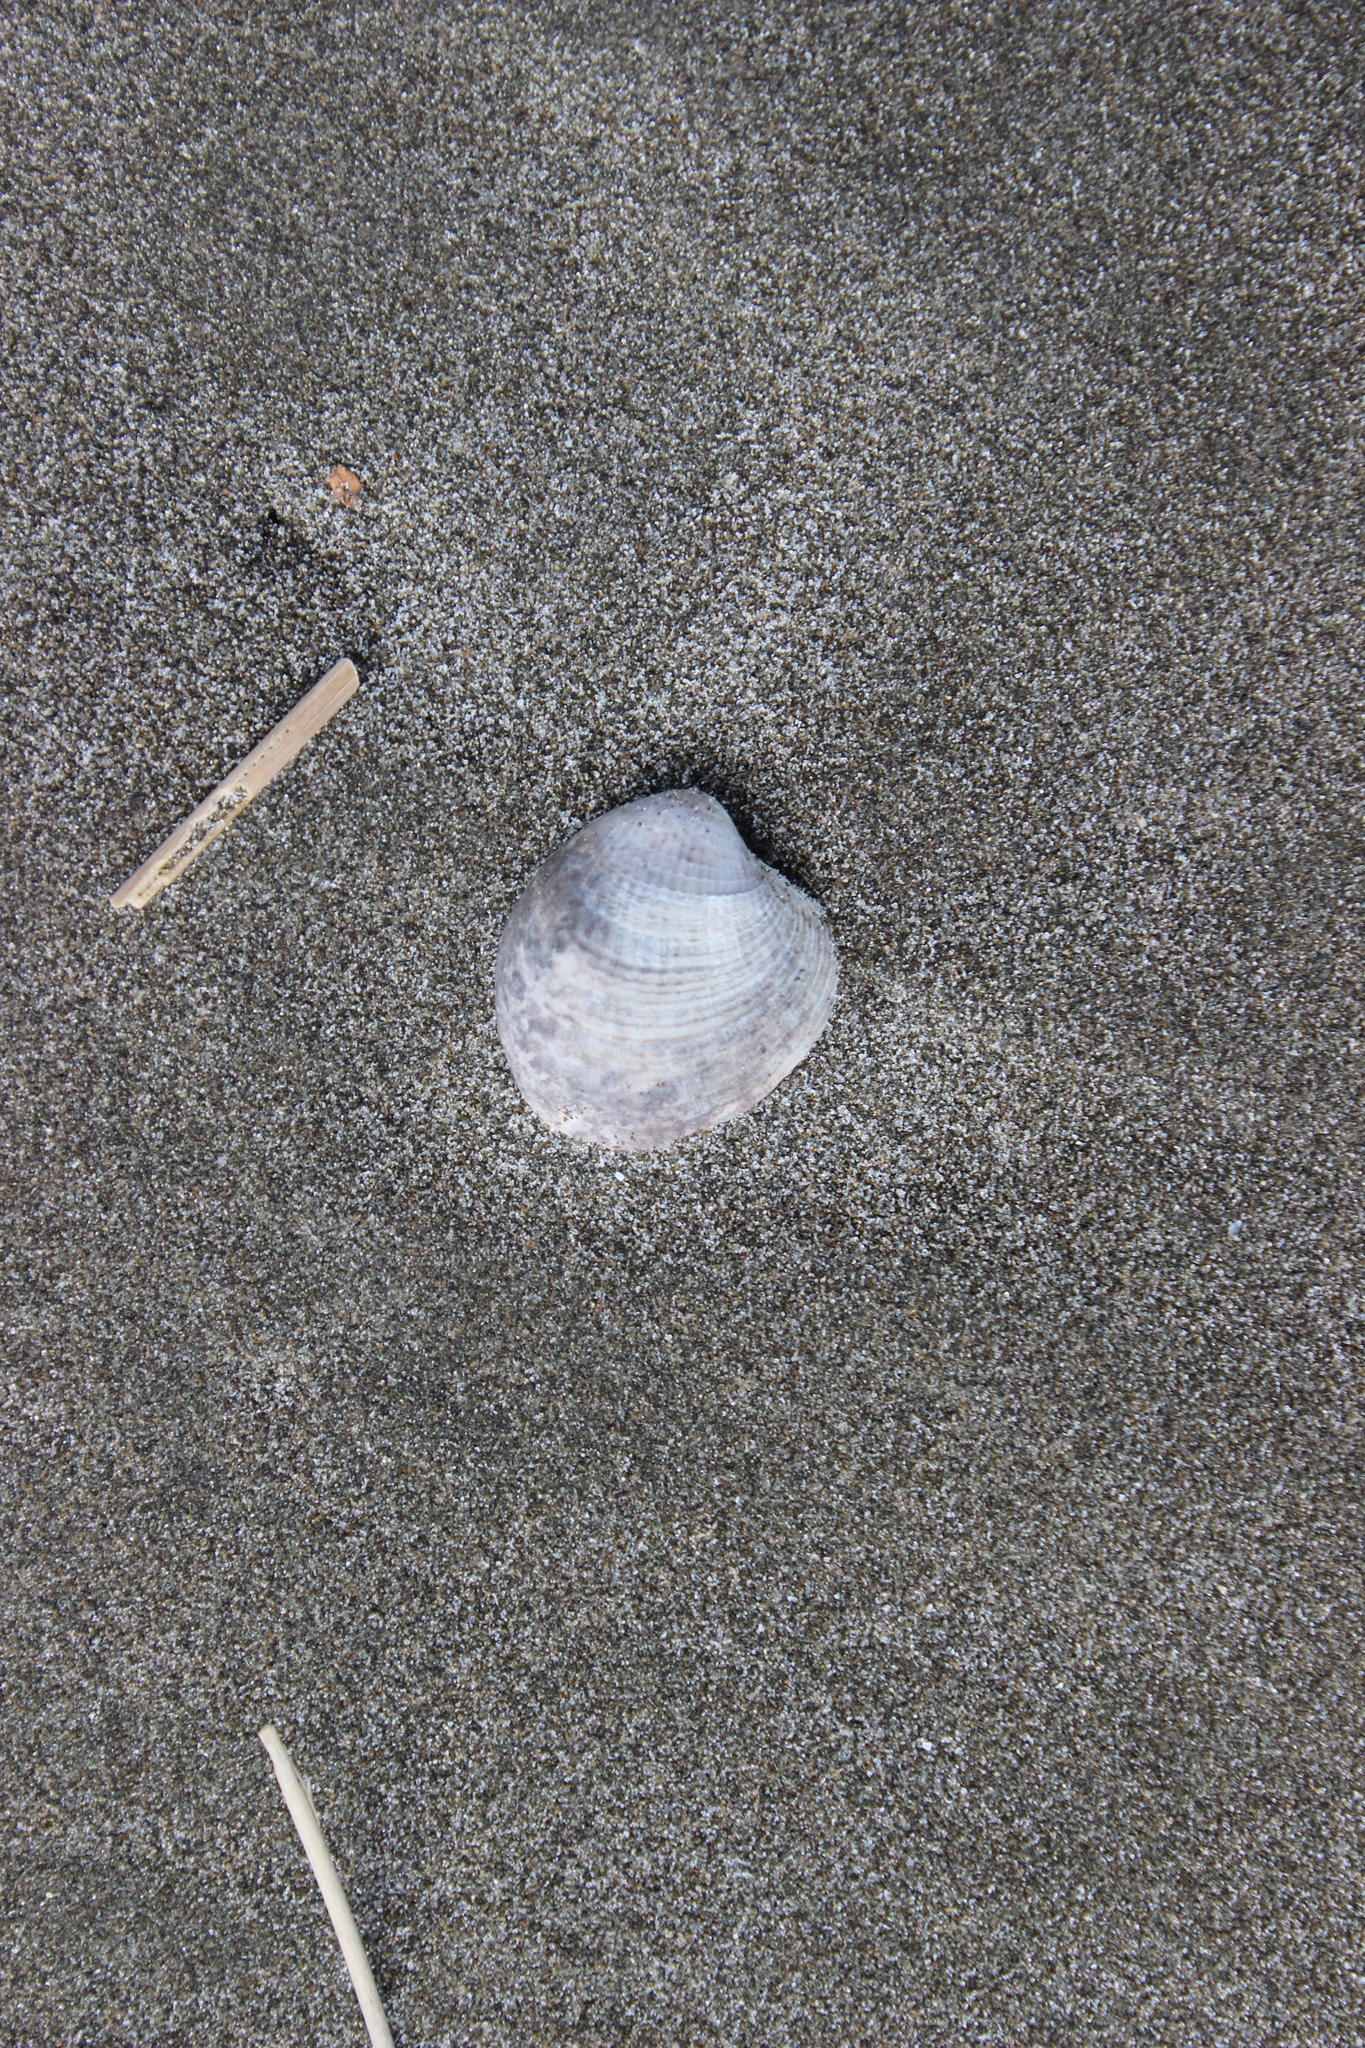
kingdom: Animalia
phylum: Mollusca
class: Bivalvia
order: Venerida
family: Veneridae
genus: Austrovenus
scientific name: Austrovenus stutchburyi
